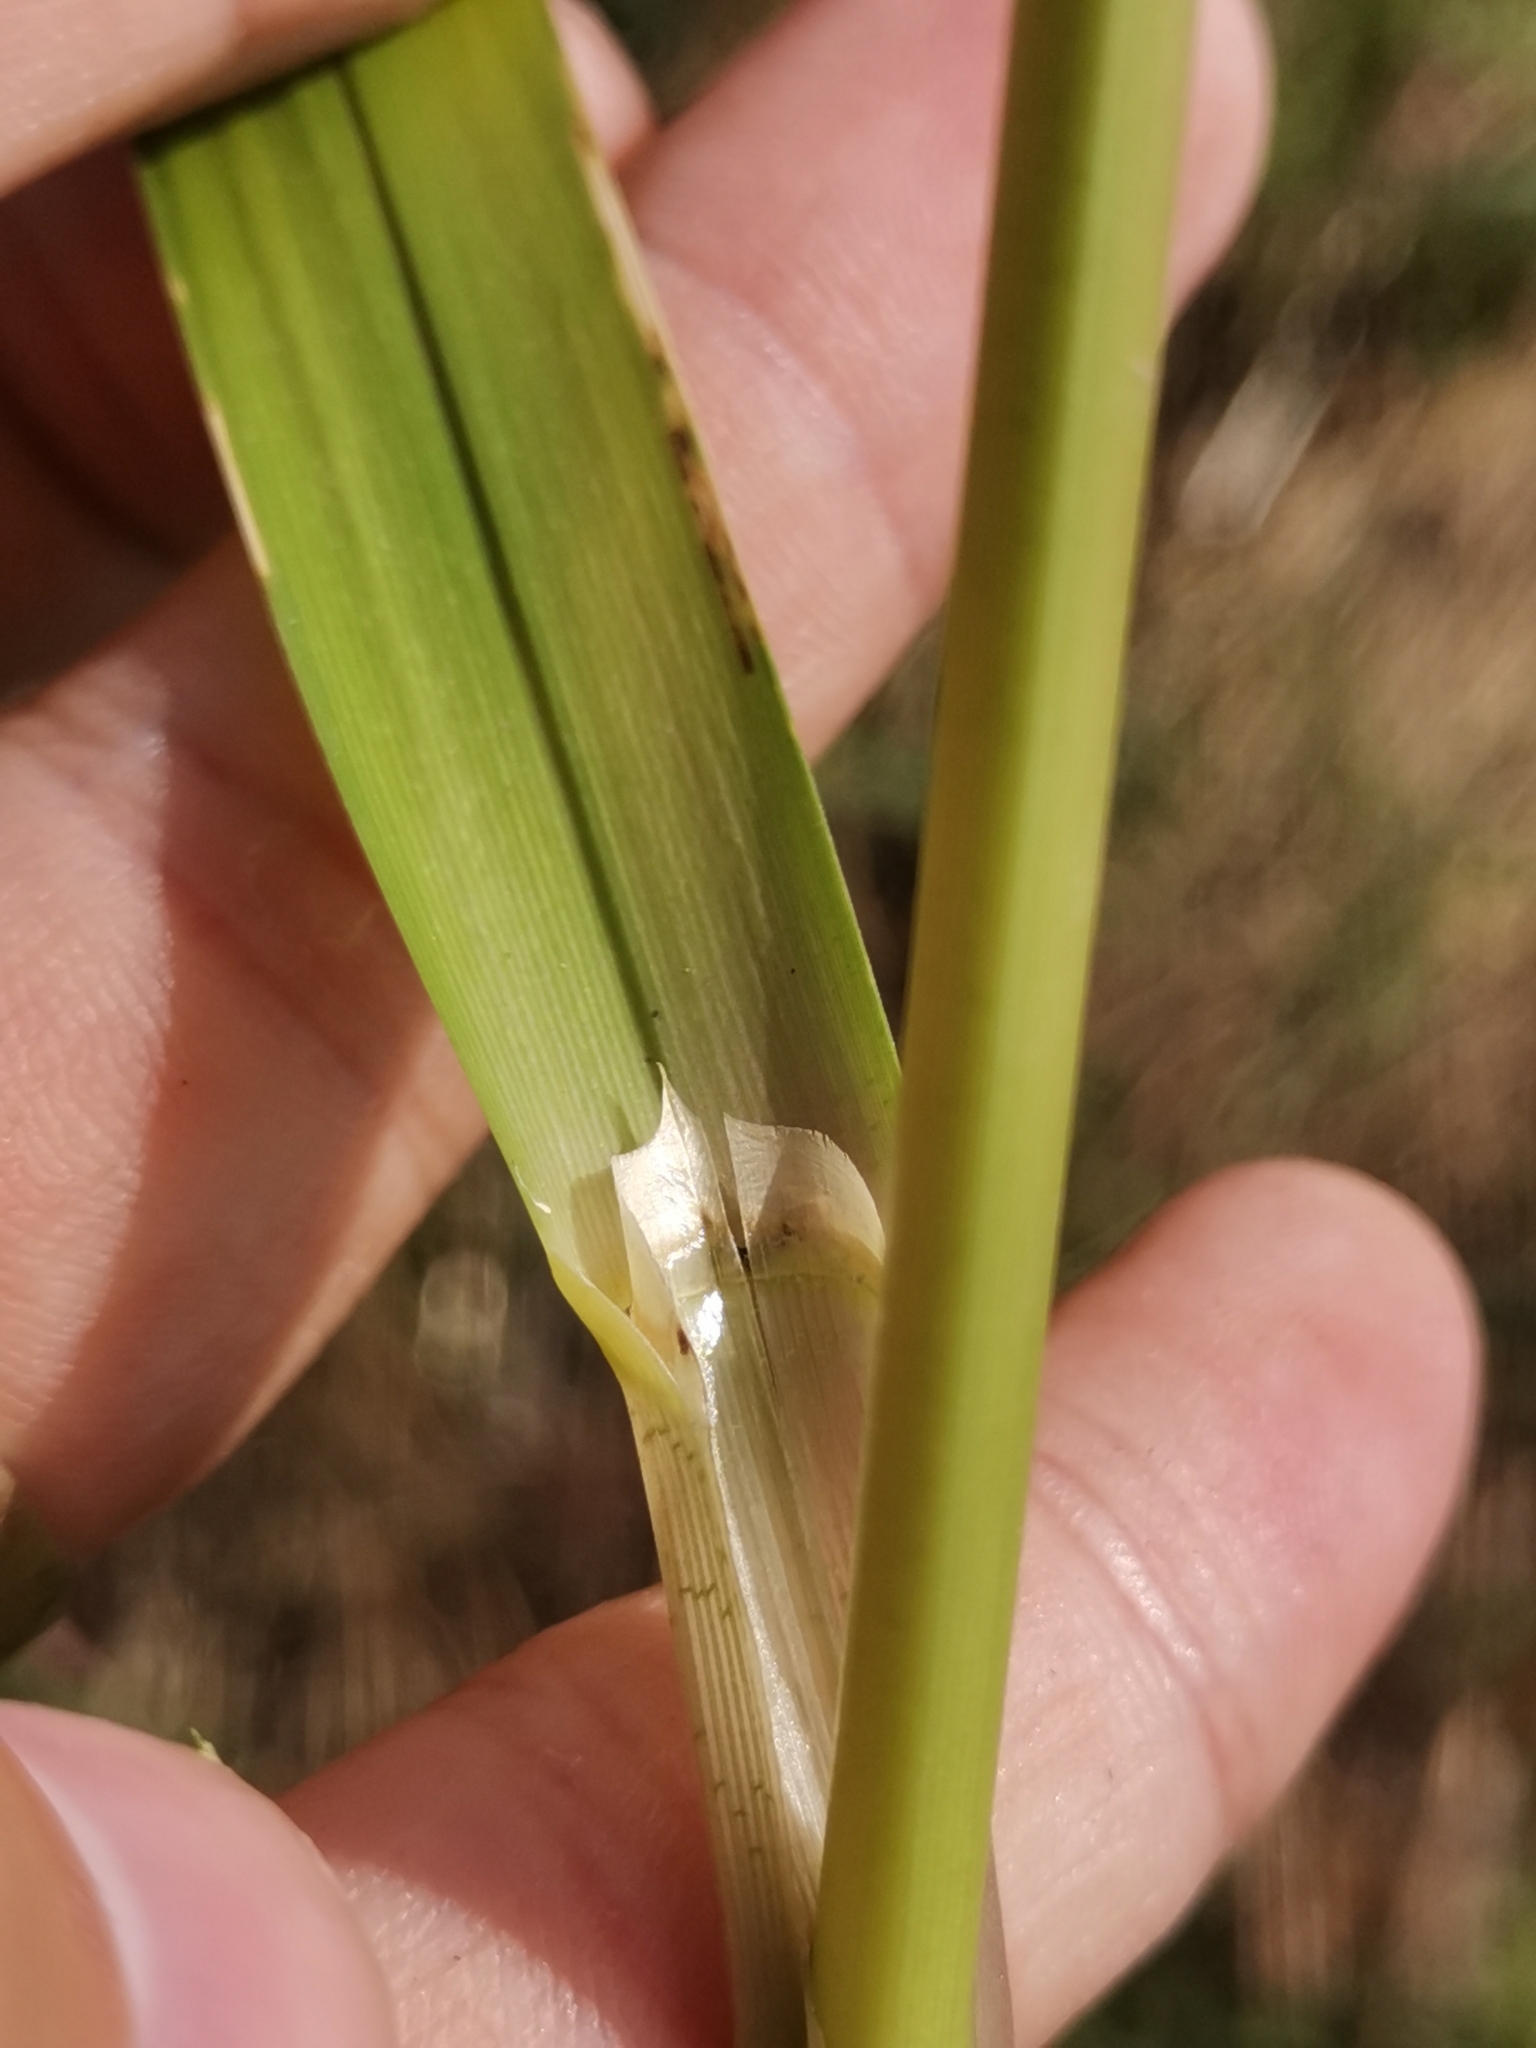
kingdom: Plantae
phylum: Tracheophyta
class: Liliopsida
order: Poales
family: Poaceae
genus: Glyceria
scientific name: Glyceria maxima
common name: Reed mannagrass
